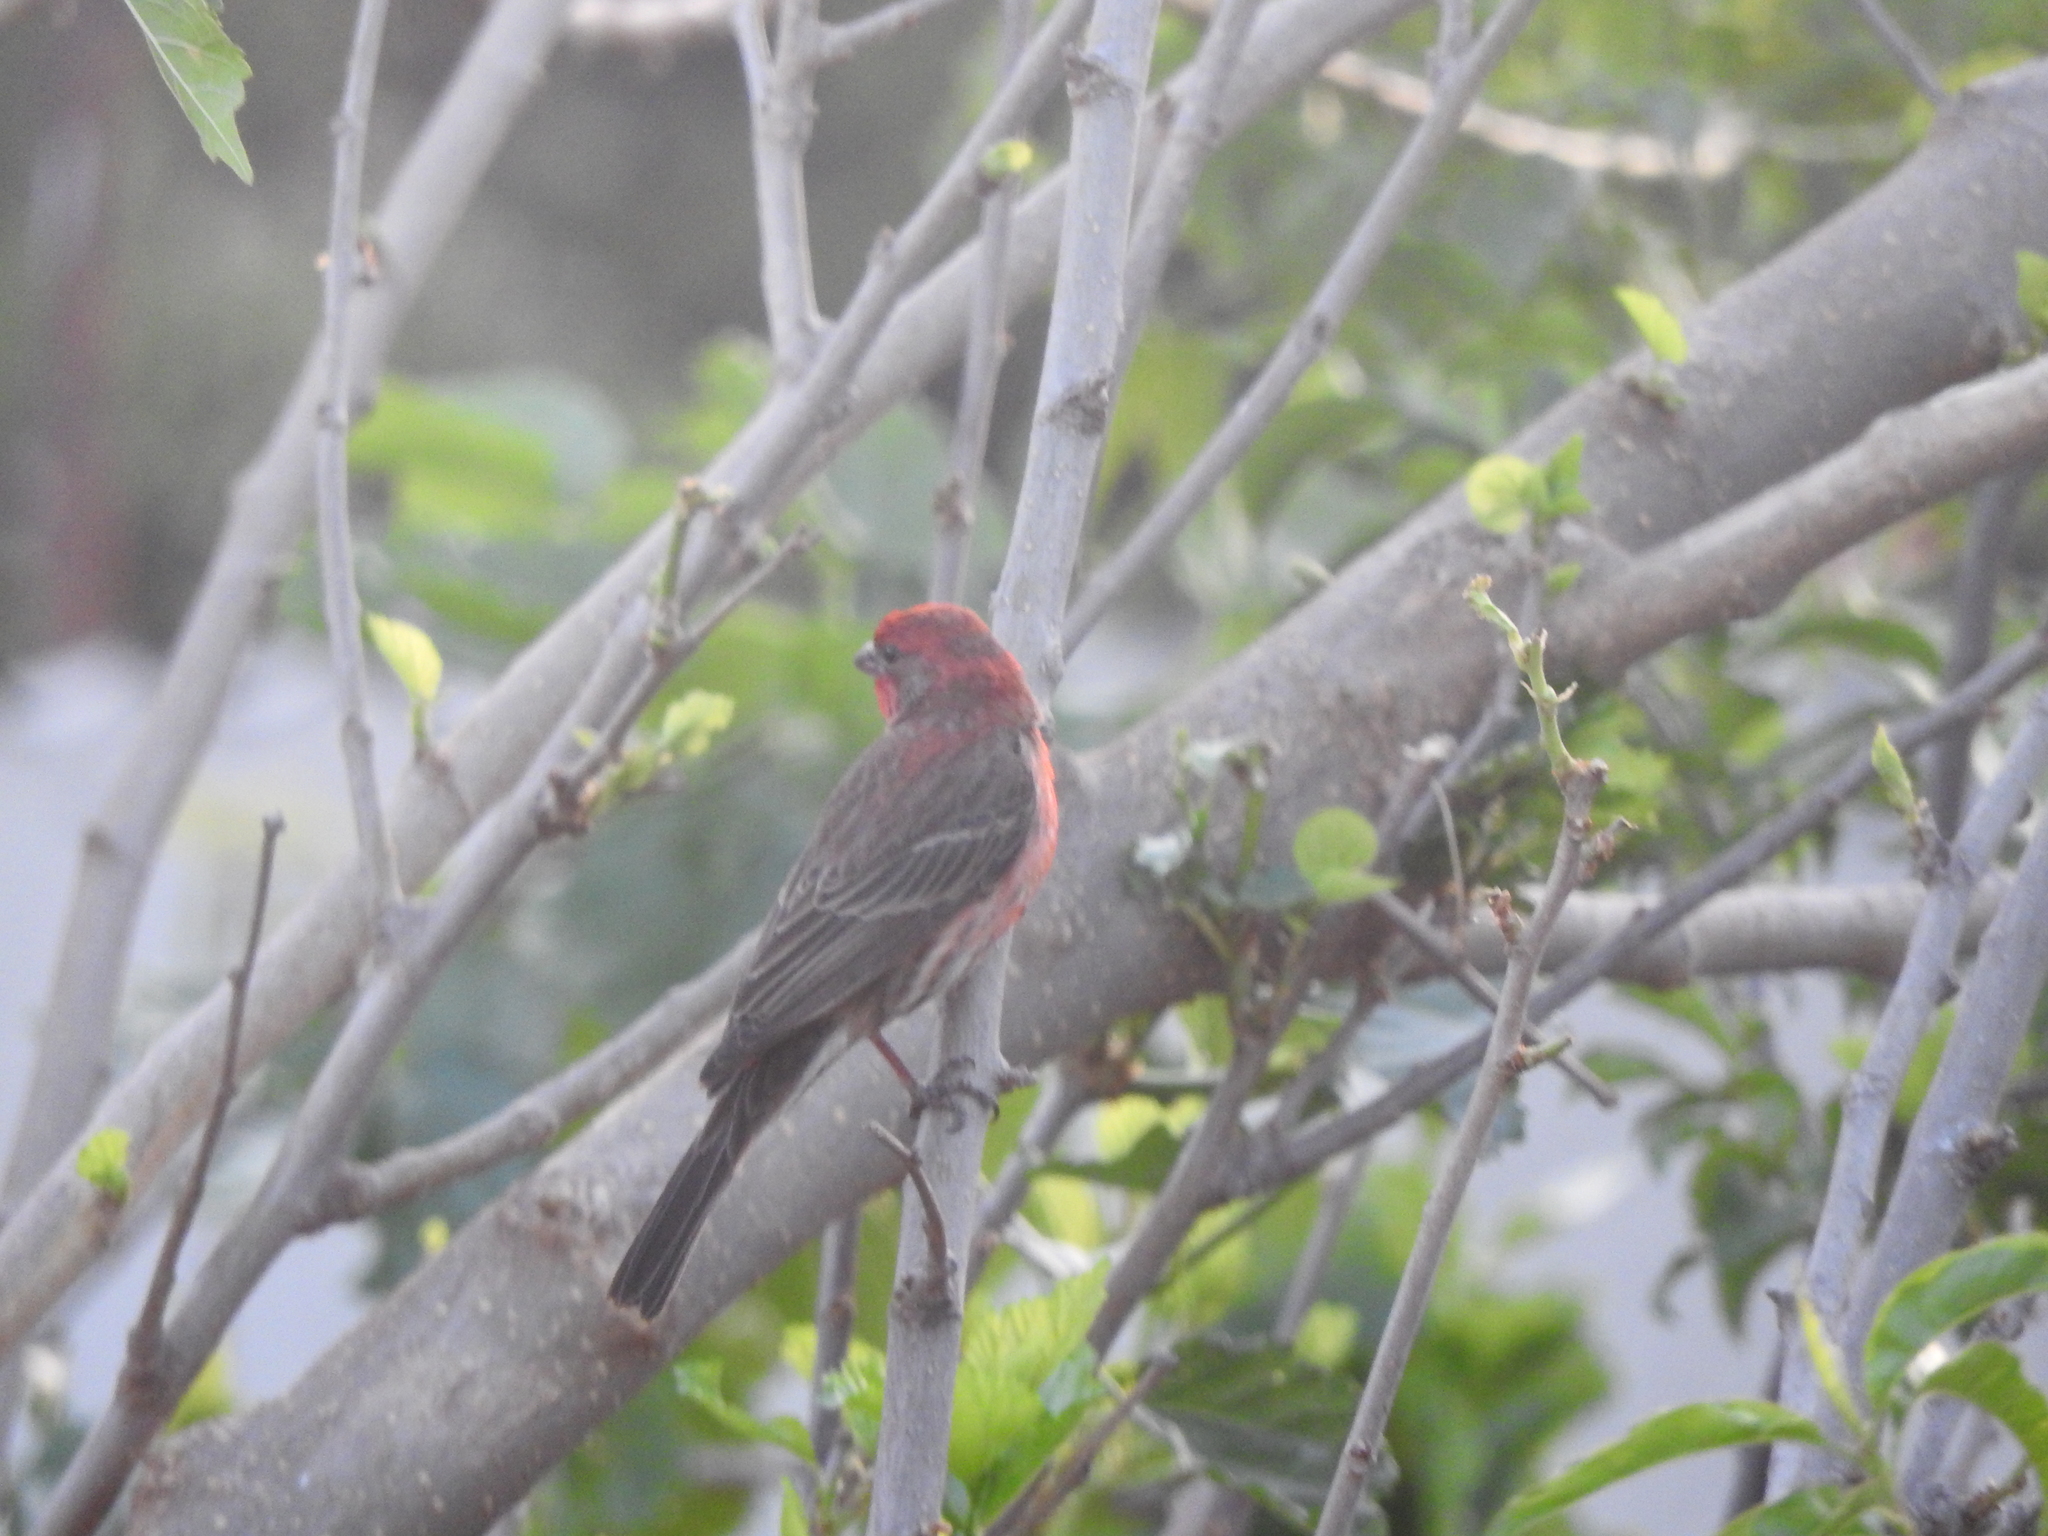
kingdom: Animalia
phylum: Chordata
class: Aves
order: Passeriformes
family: Fringillidae
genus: Haemorhous
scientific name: Haemorhous mexicanus
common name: House finch
